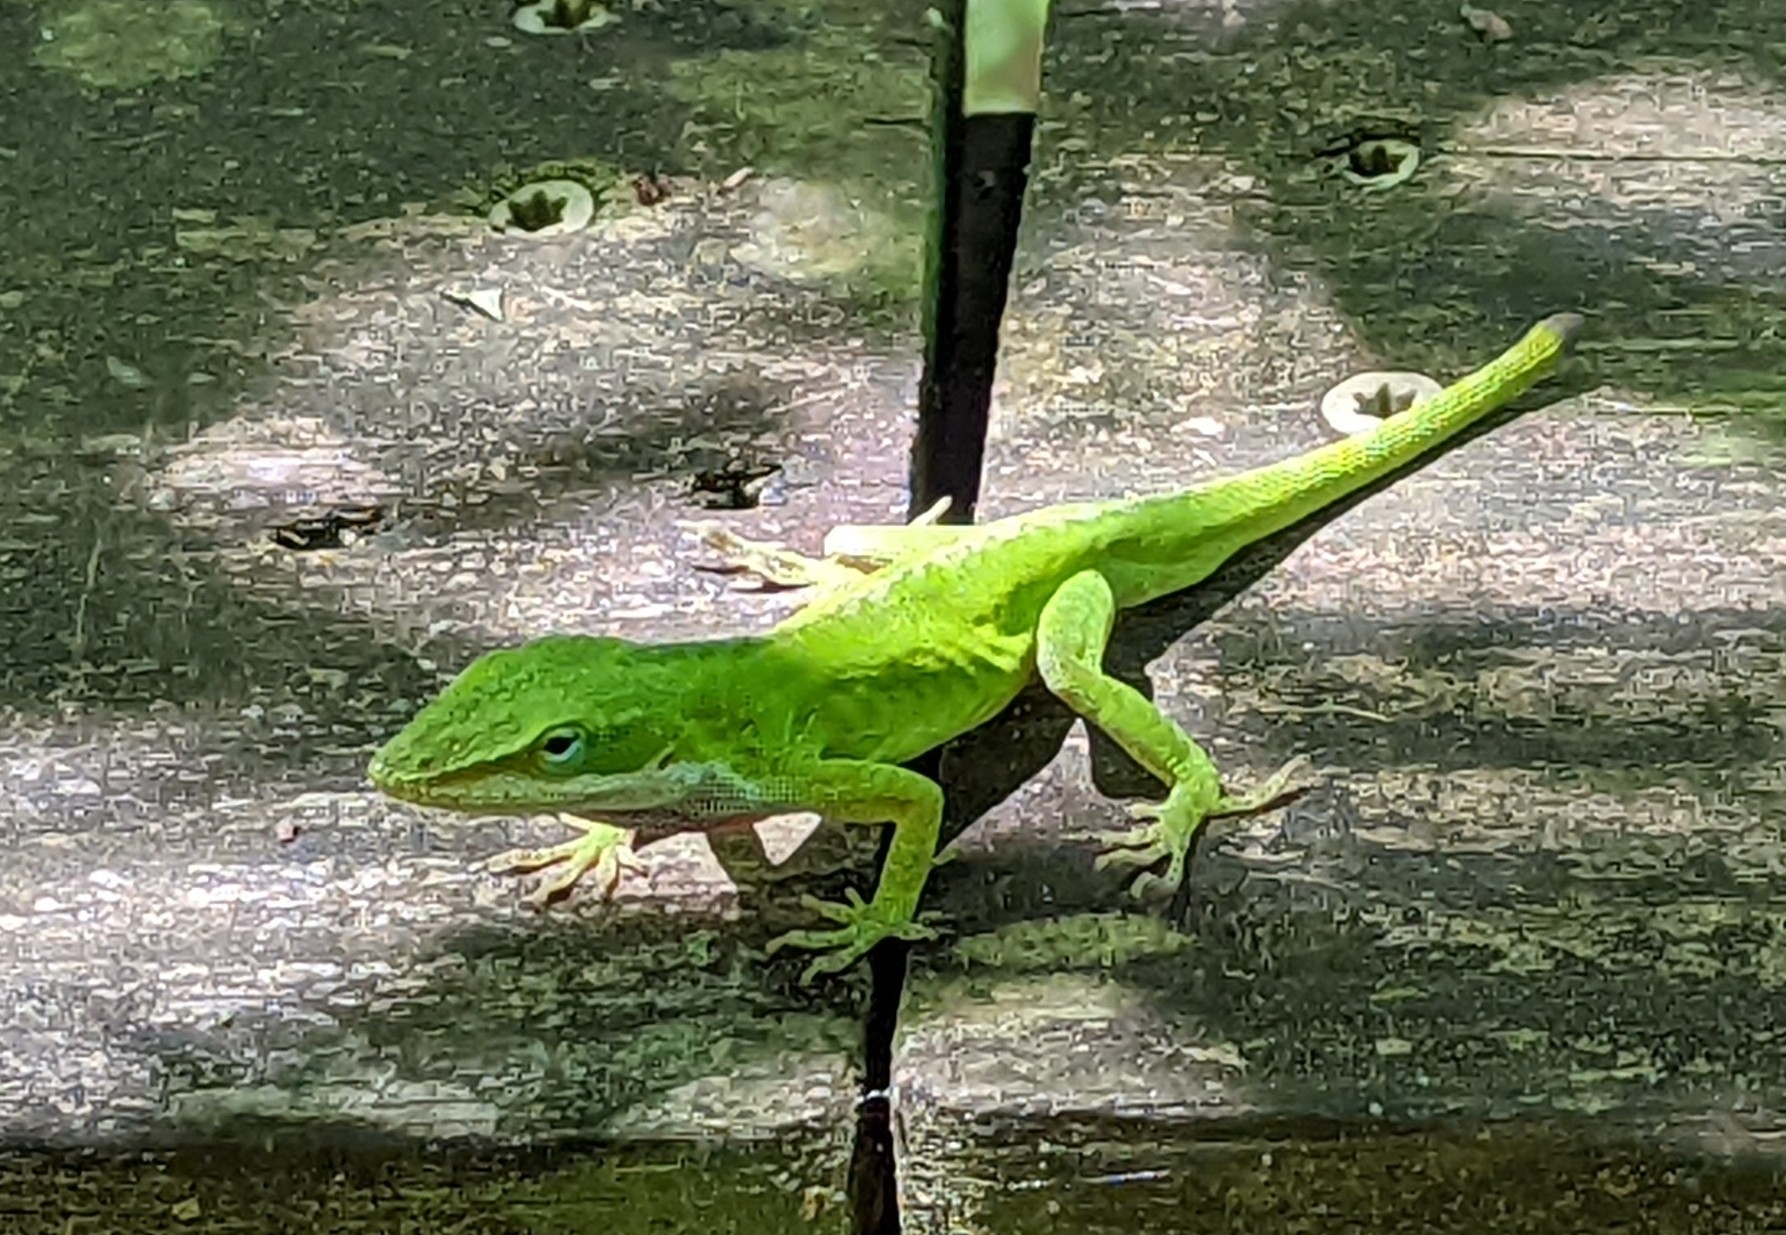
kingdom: Animalia
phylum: Chordata
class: Squamata
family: Dactyloidae
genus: Anolis
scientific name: Anolis carolinensis
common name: Green anole
